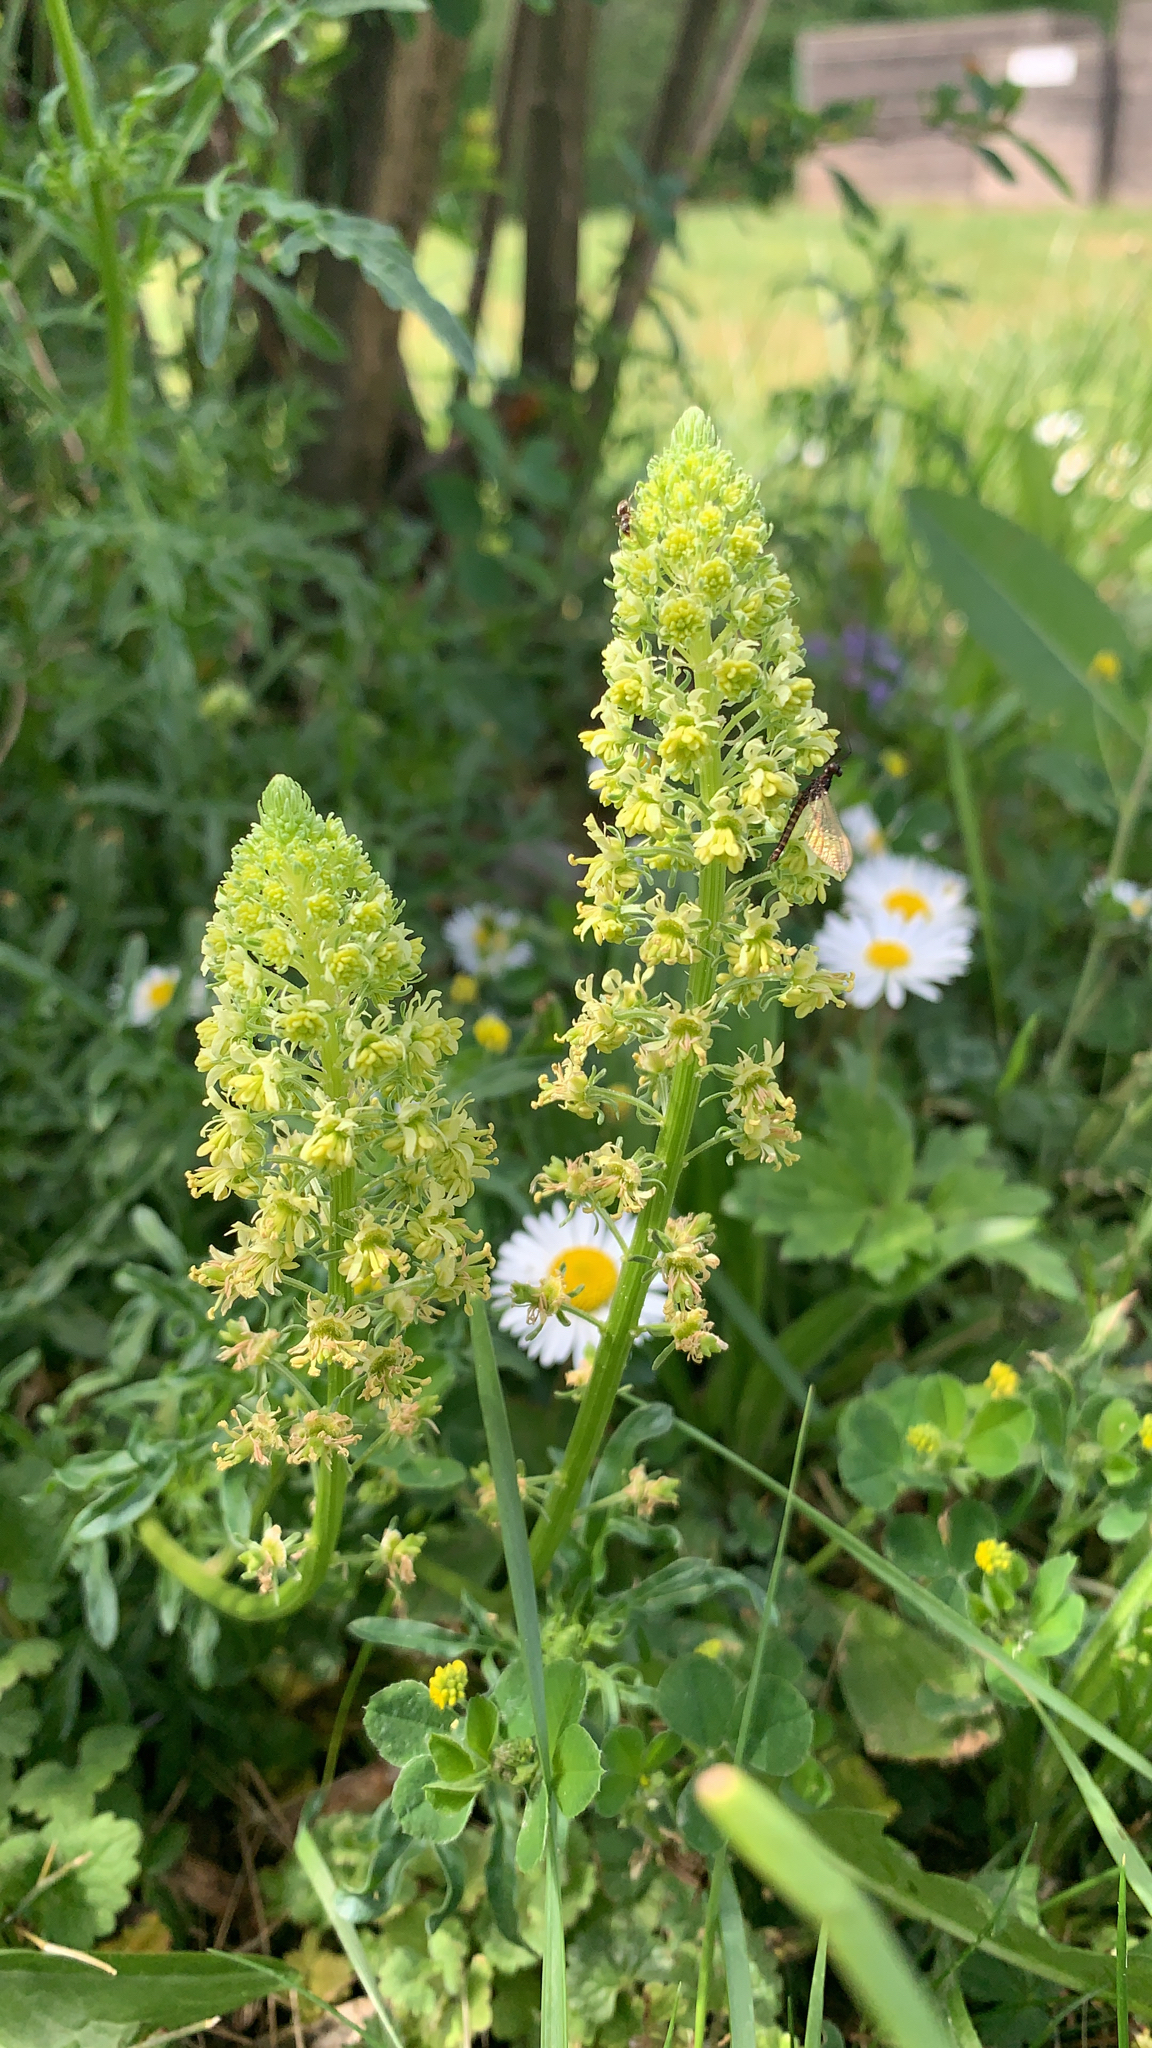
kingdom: Plantae
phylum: Tracheophyta
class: Magnoliopsida
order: Brassicales
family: Resedaceae
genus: Reseda
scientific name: Reseda lutea
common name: Wild mignonette
